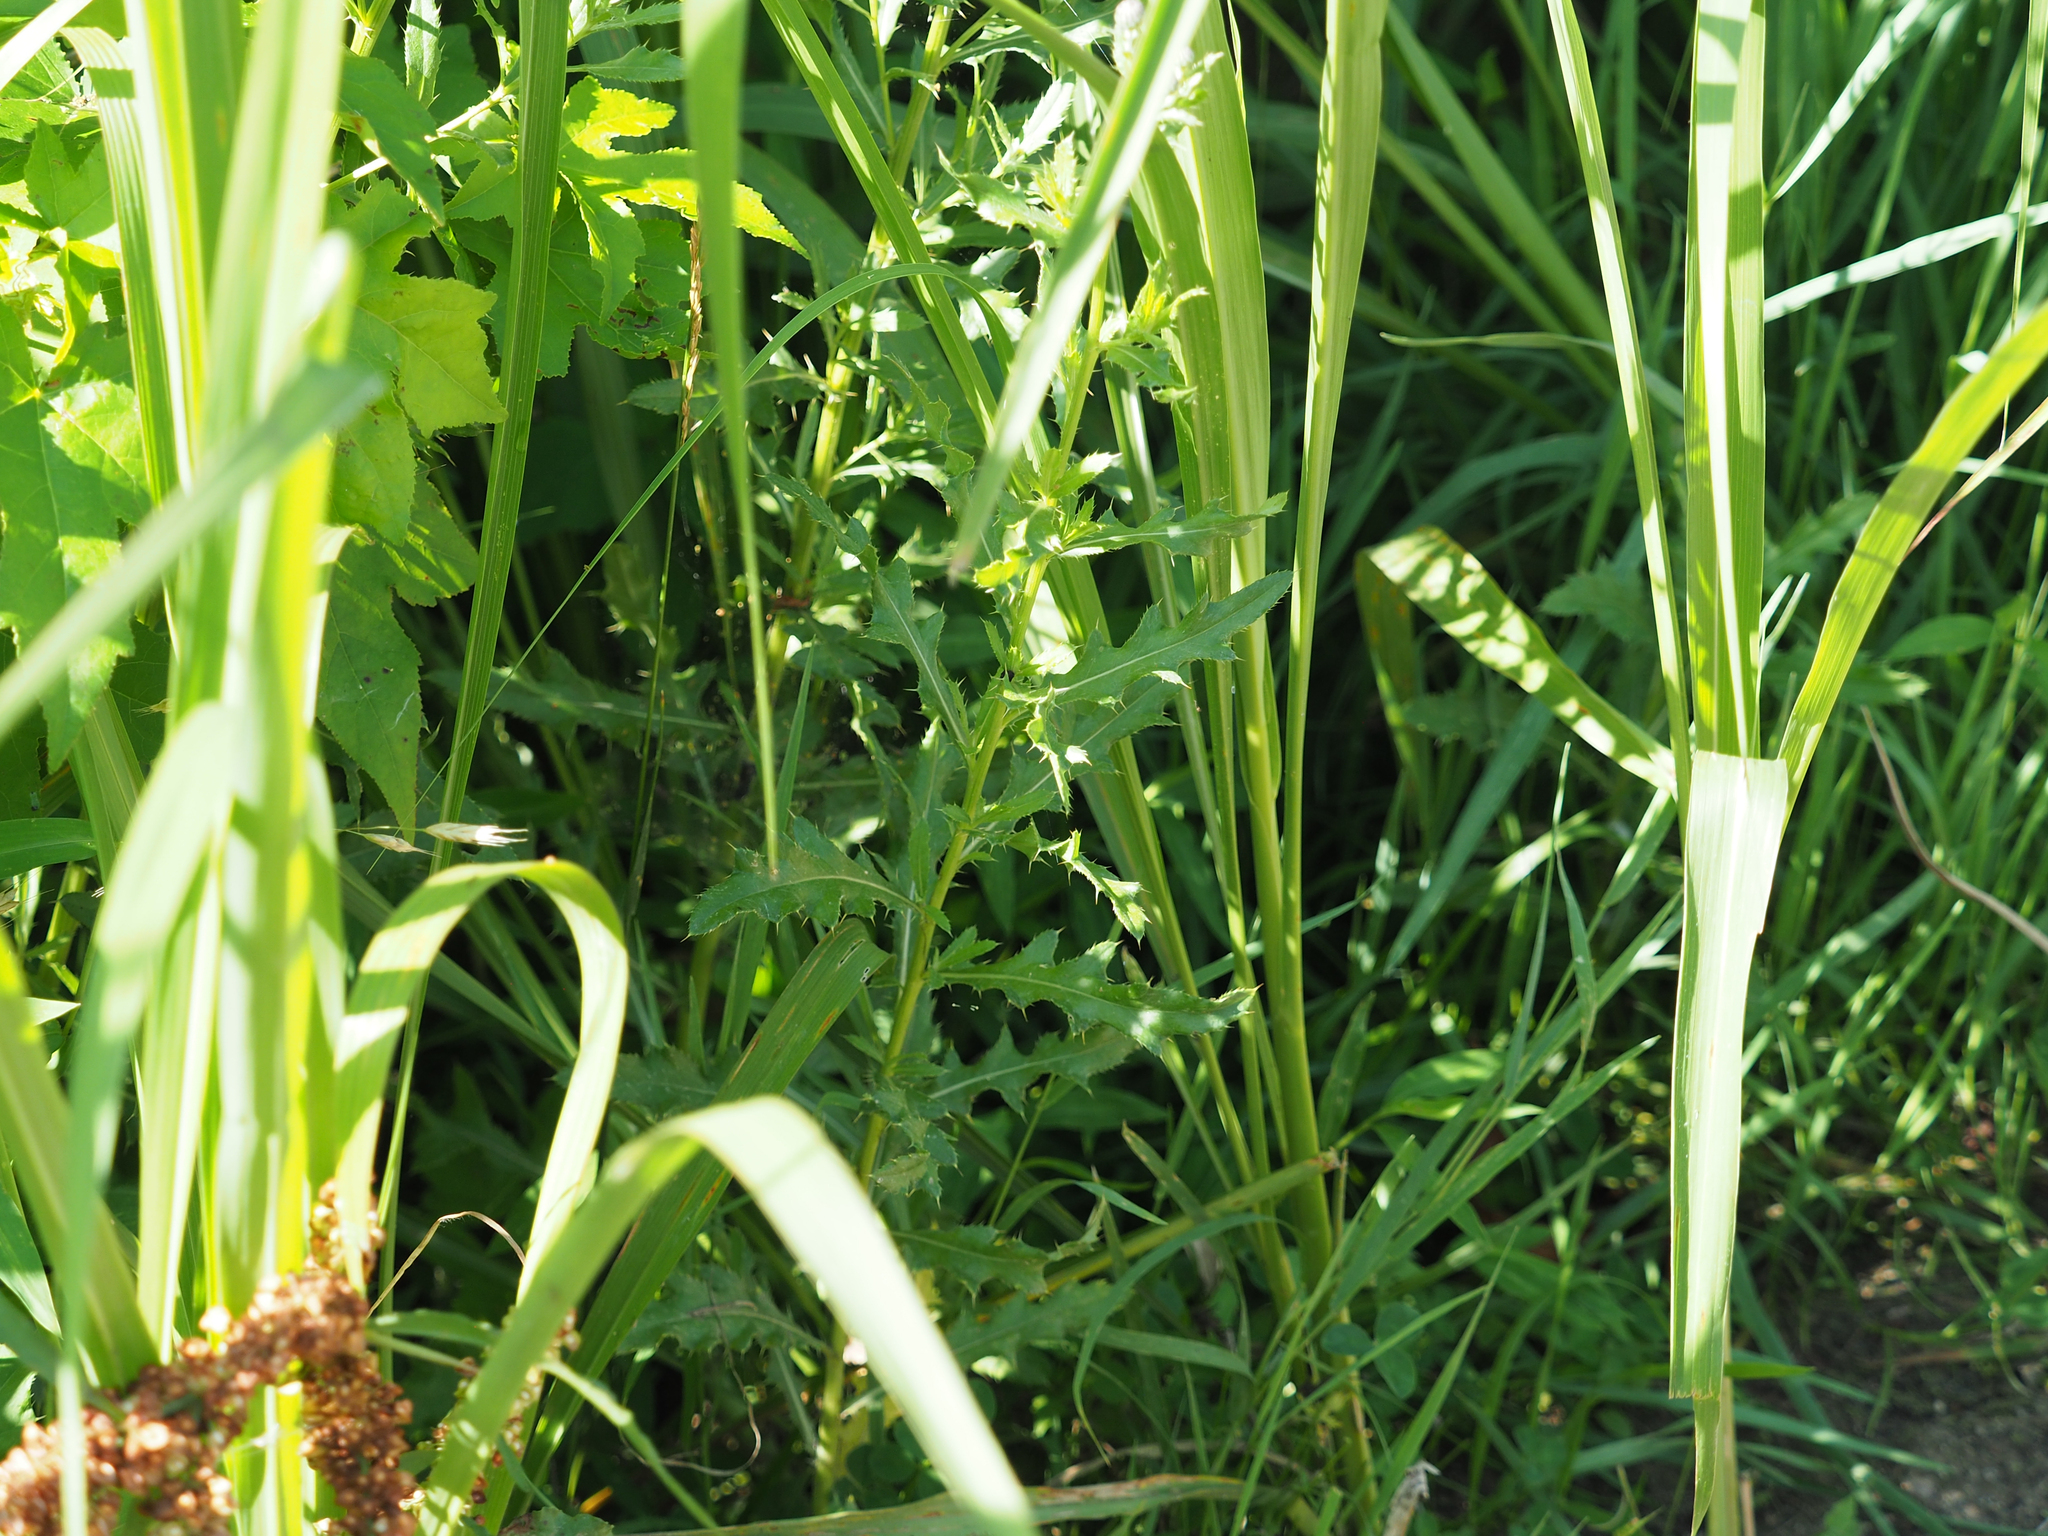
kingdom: Plantae
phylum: Tracheophyta
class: Magnoliopsida
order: Asterales
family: Asteraceae
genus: Cirsium
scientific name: Cirsium arvense
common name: Creeping thistle
